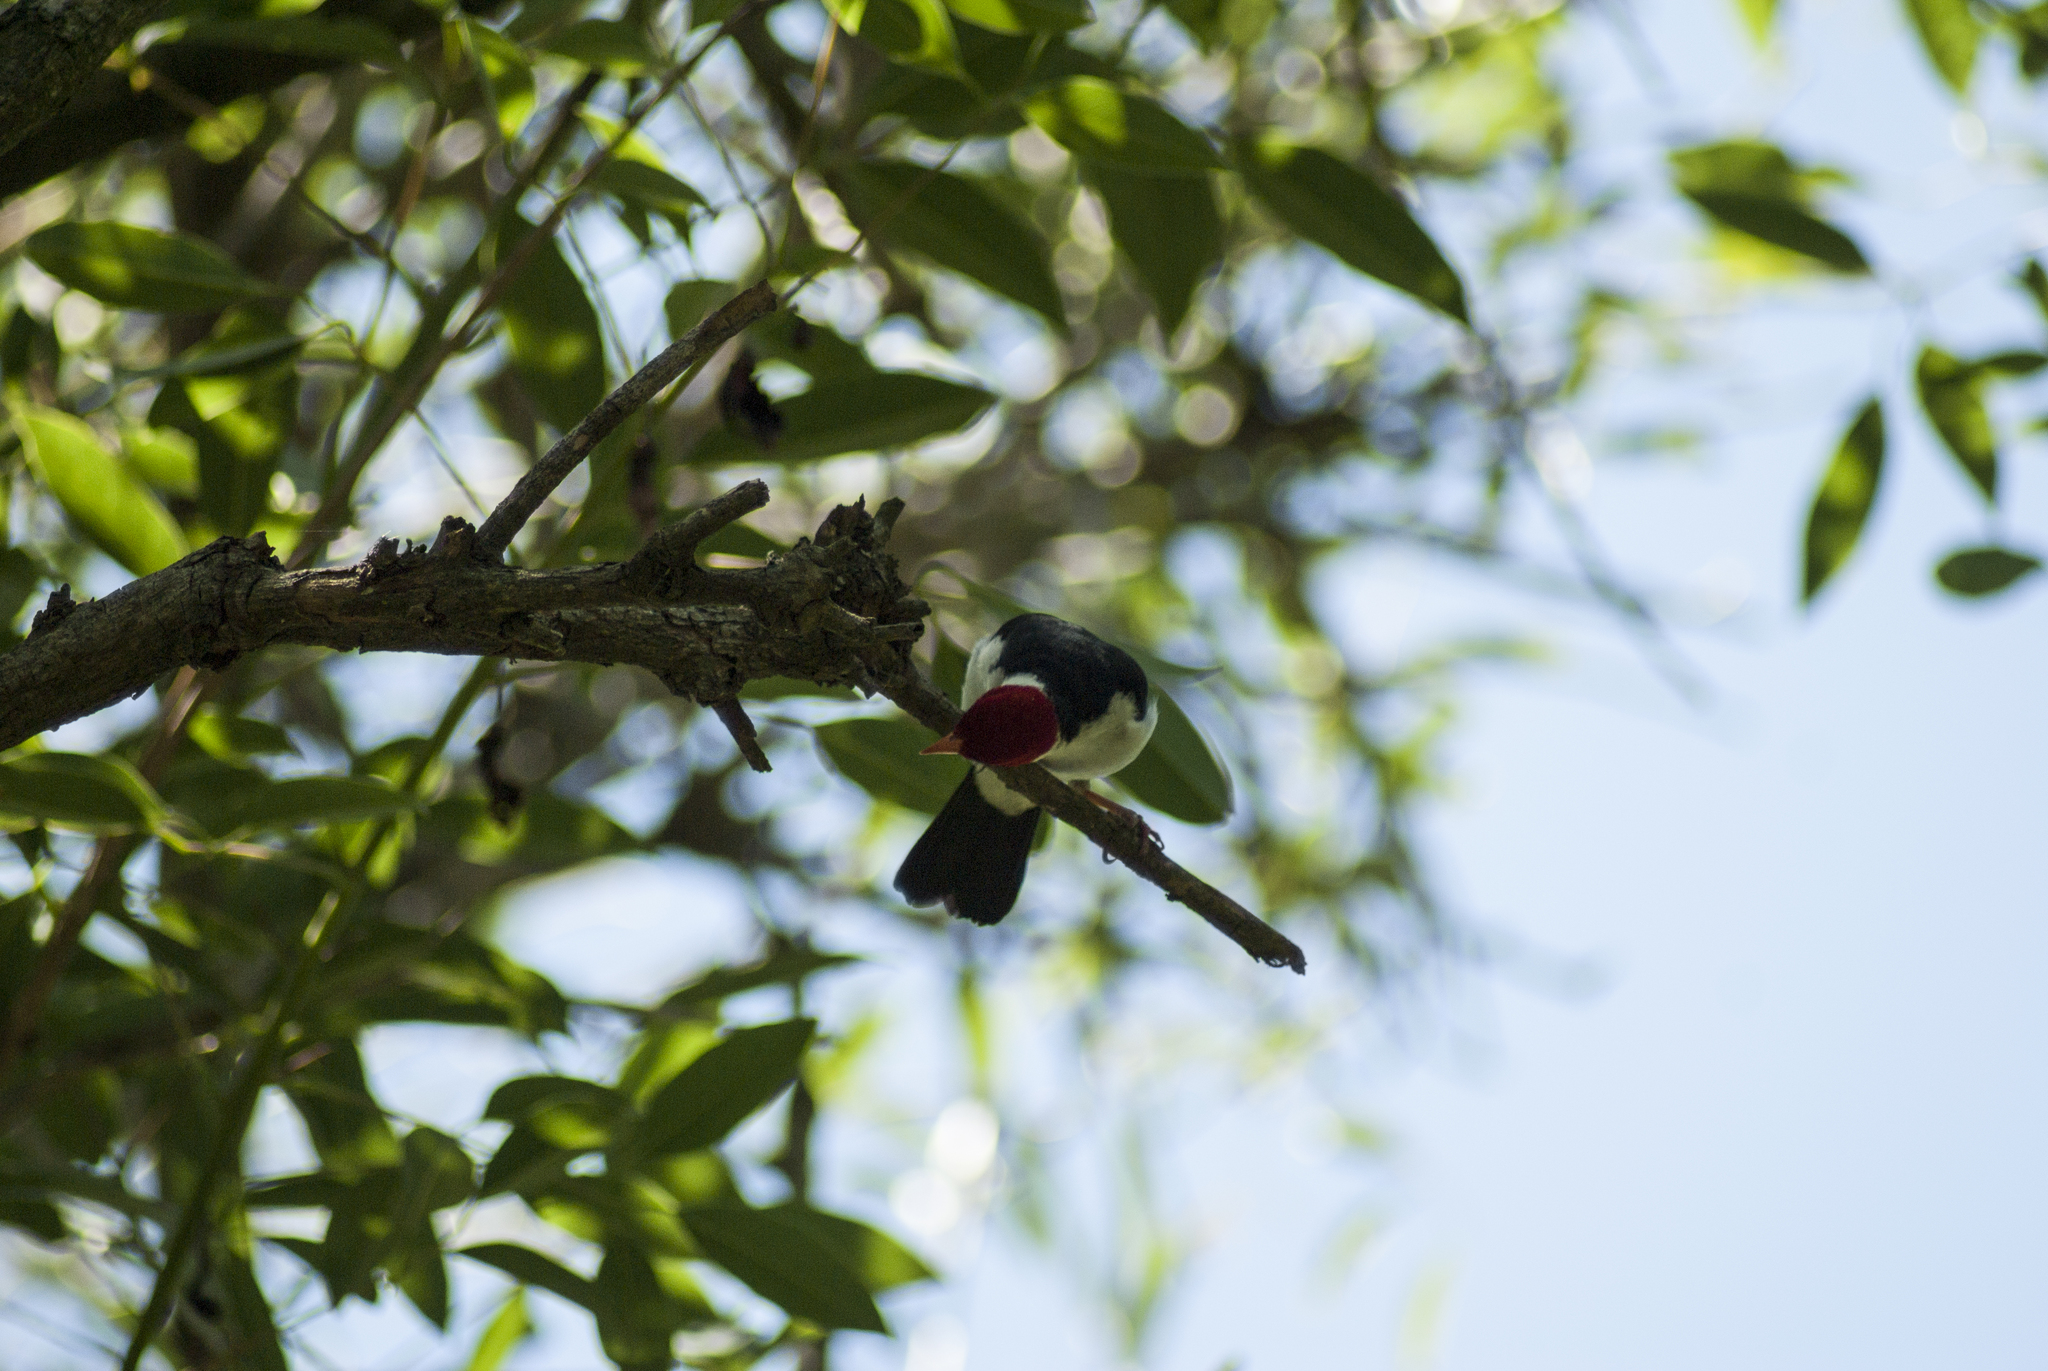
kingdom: Animalia
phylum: Chordata
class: Aves
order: Passeriformes
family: Thraupidae
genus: Paroaria
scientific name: Paroaria capitata
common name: Yellow-billed cardinal
